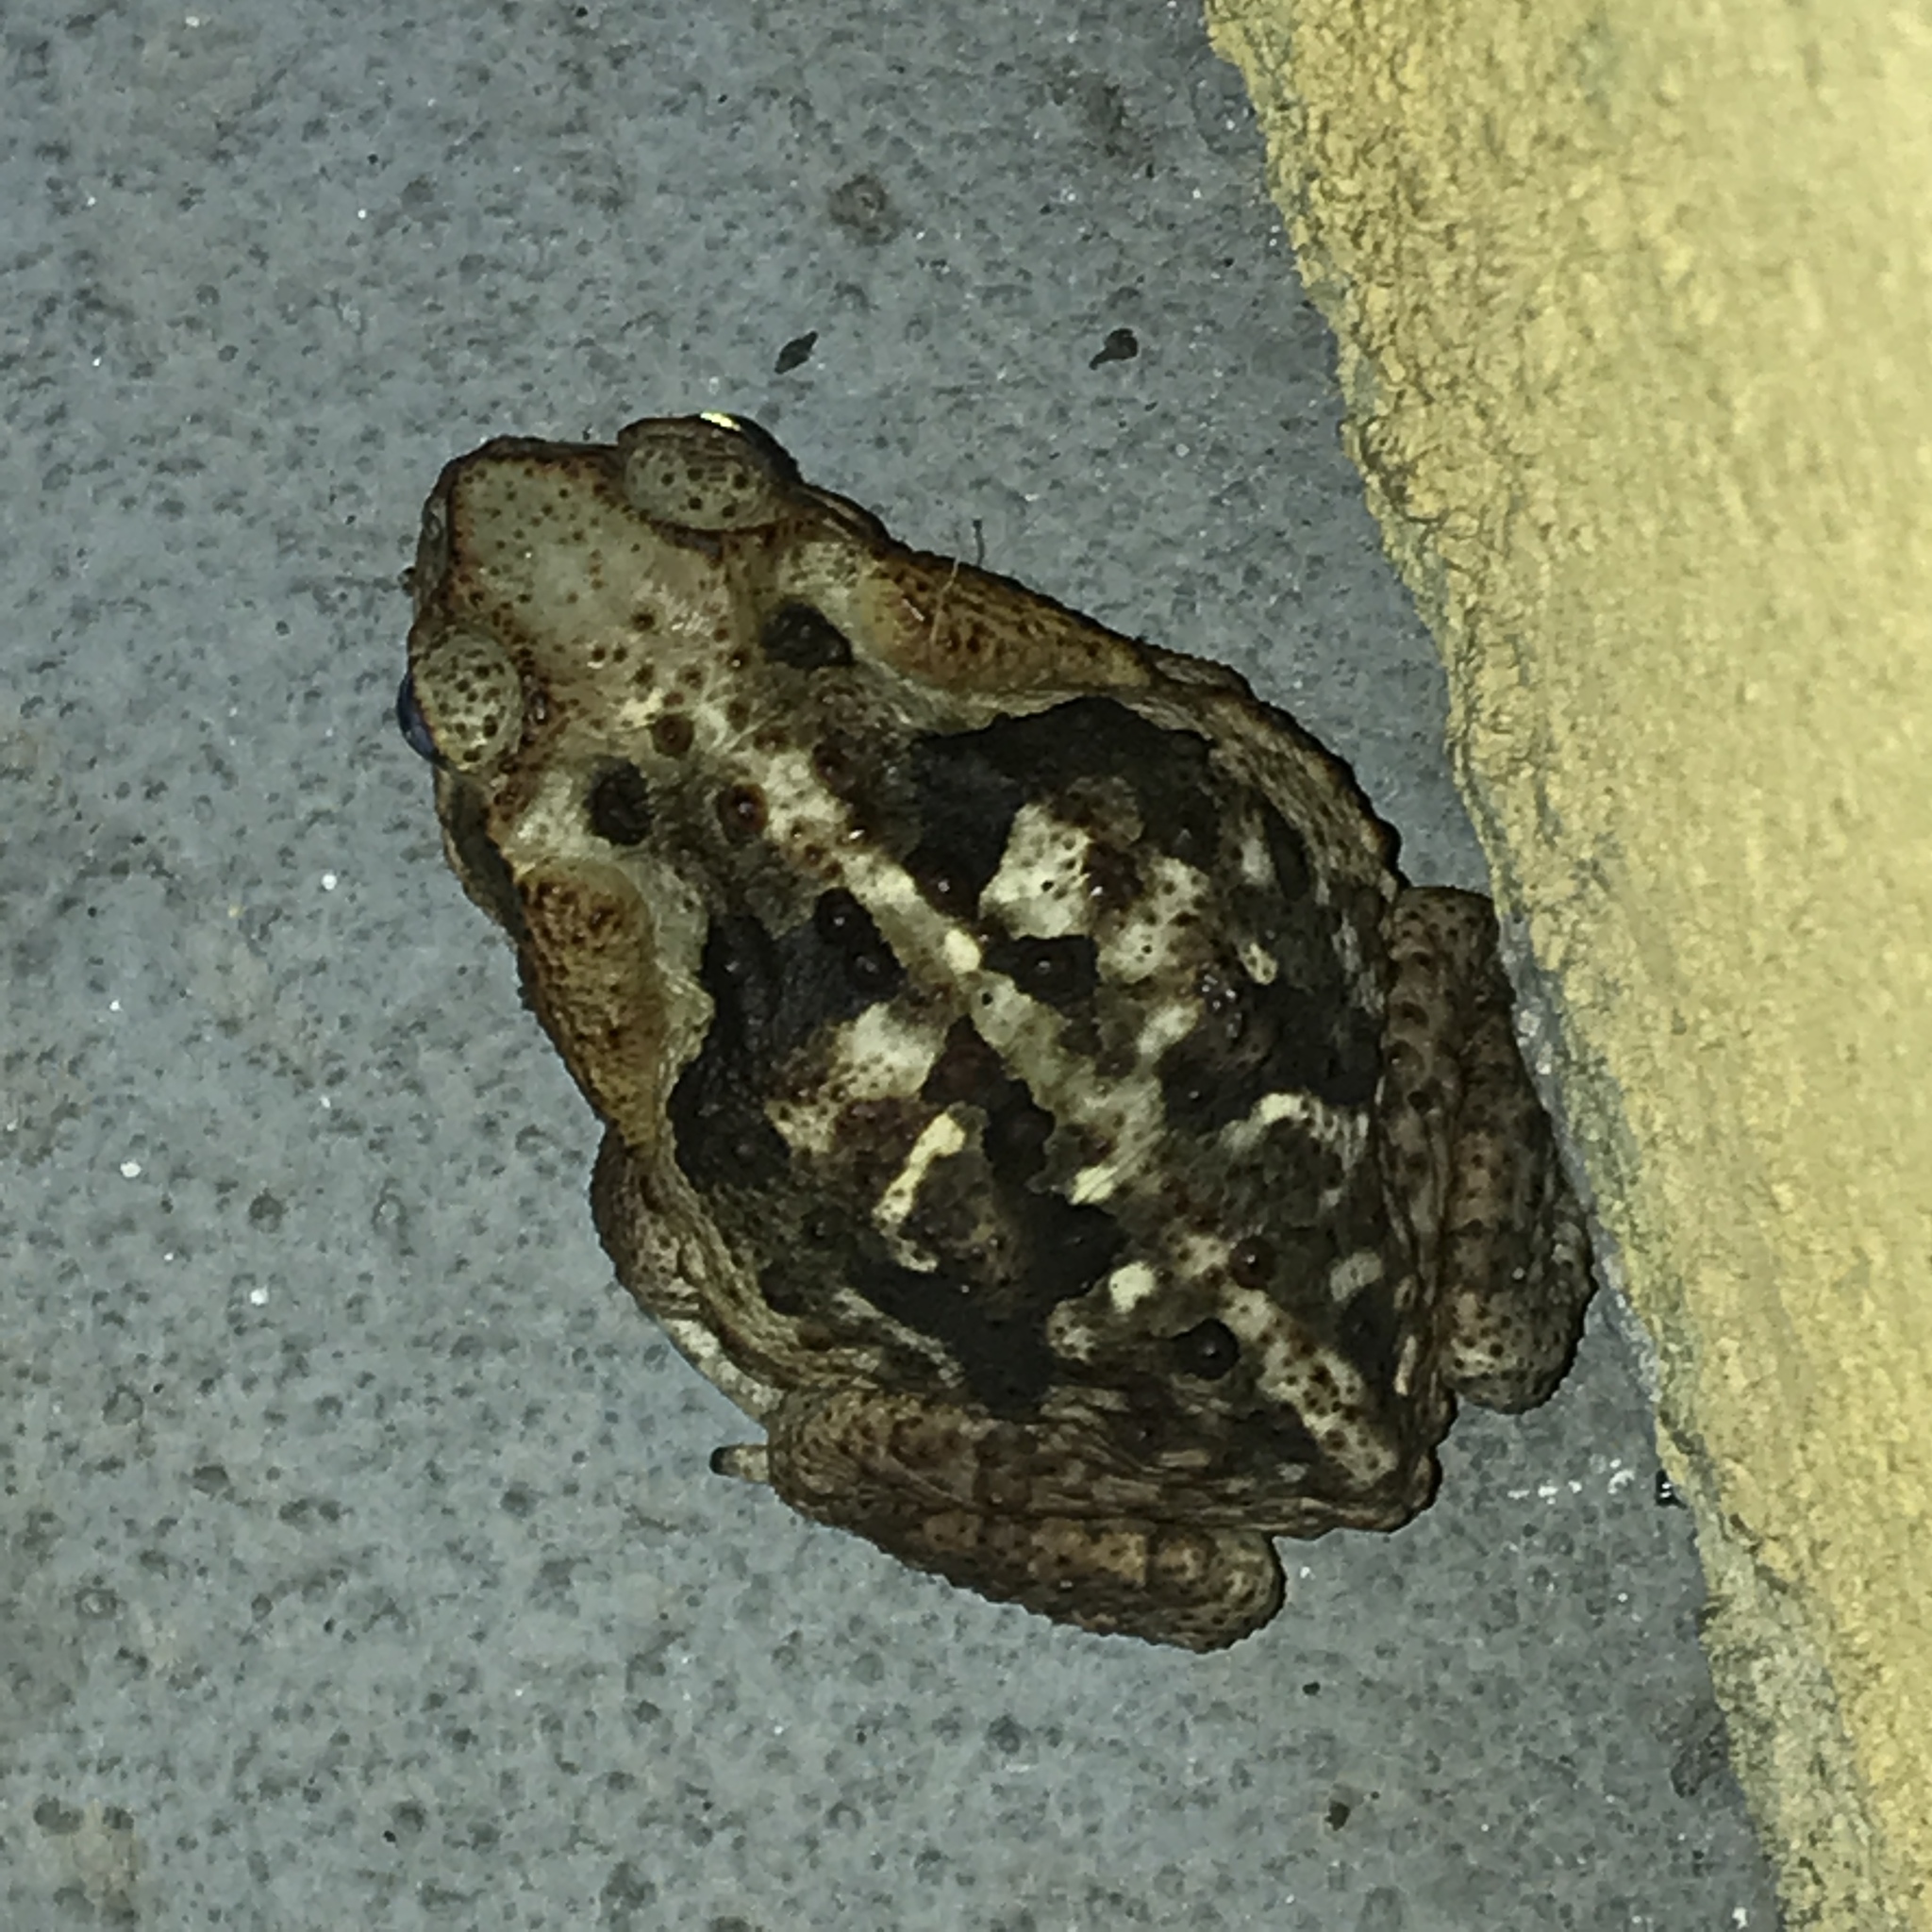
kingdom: Animalia
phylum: Chordata
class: Amphibia
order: Anura
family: Bufonidae
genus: Rhinella
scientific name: Rhinella diptycha
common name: Cope's toad
